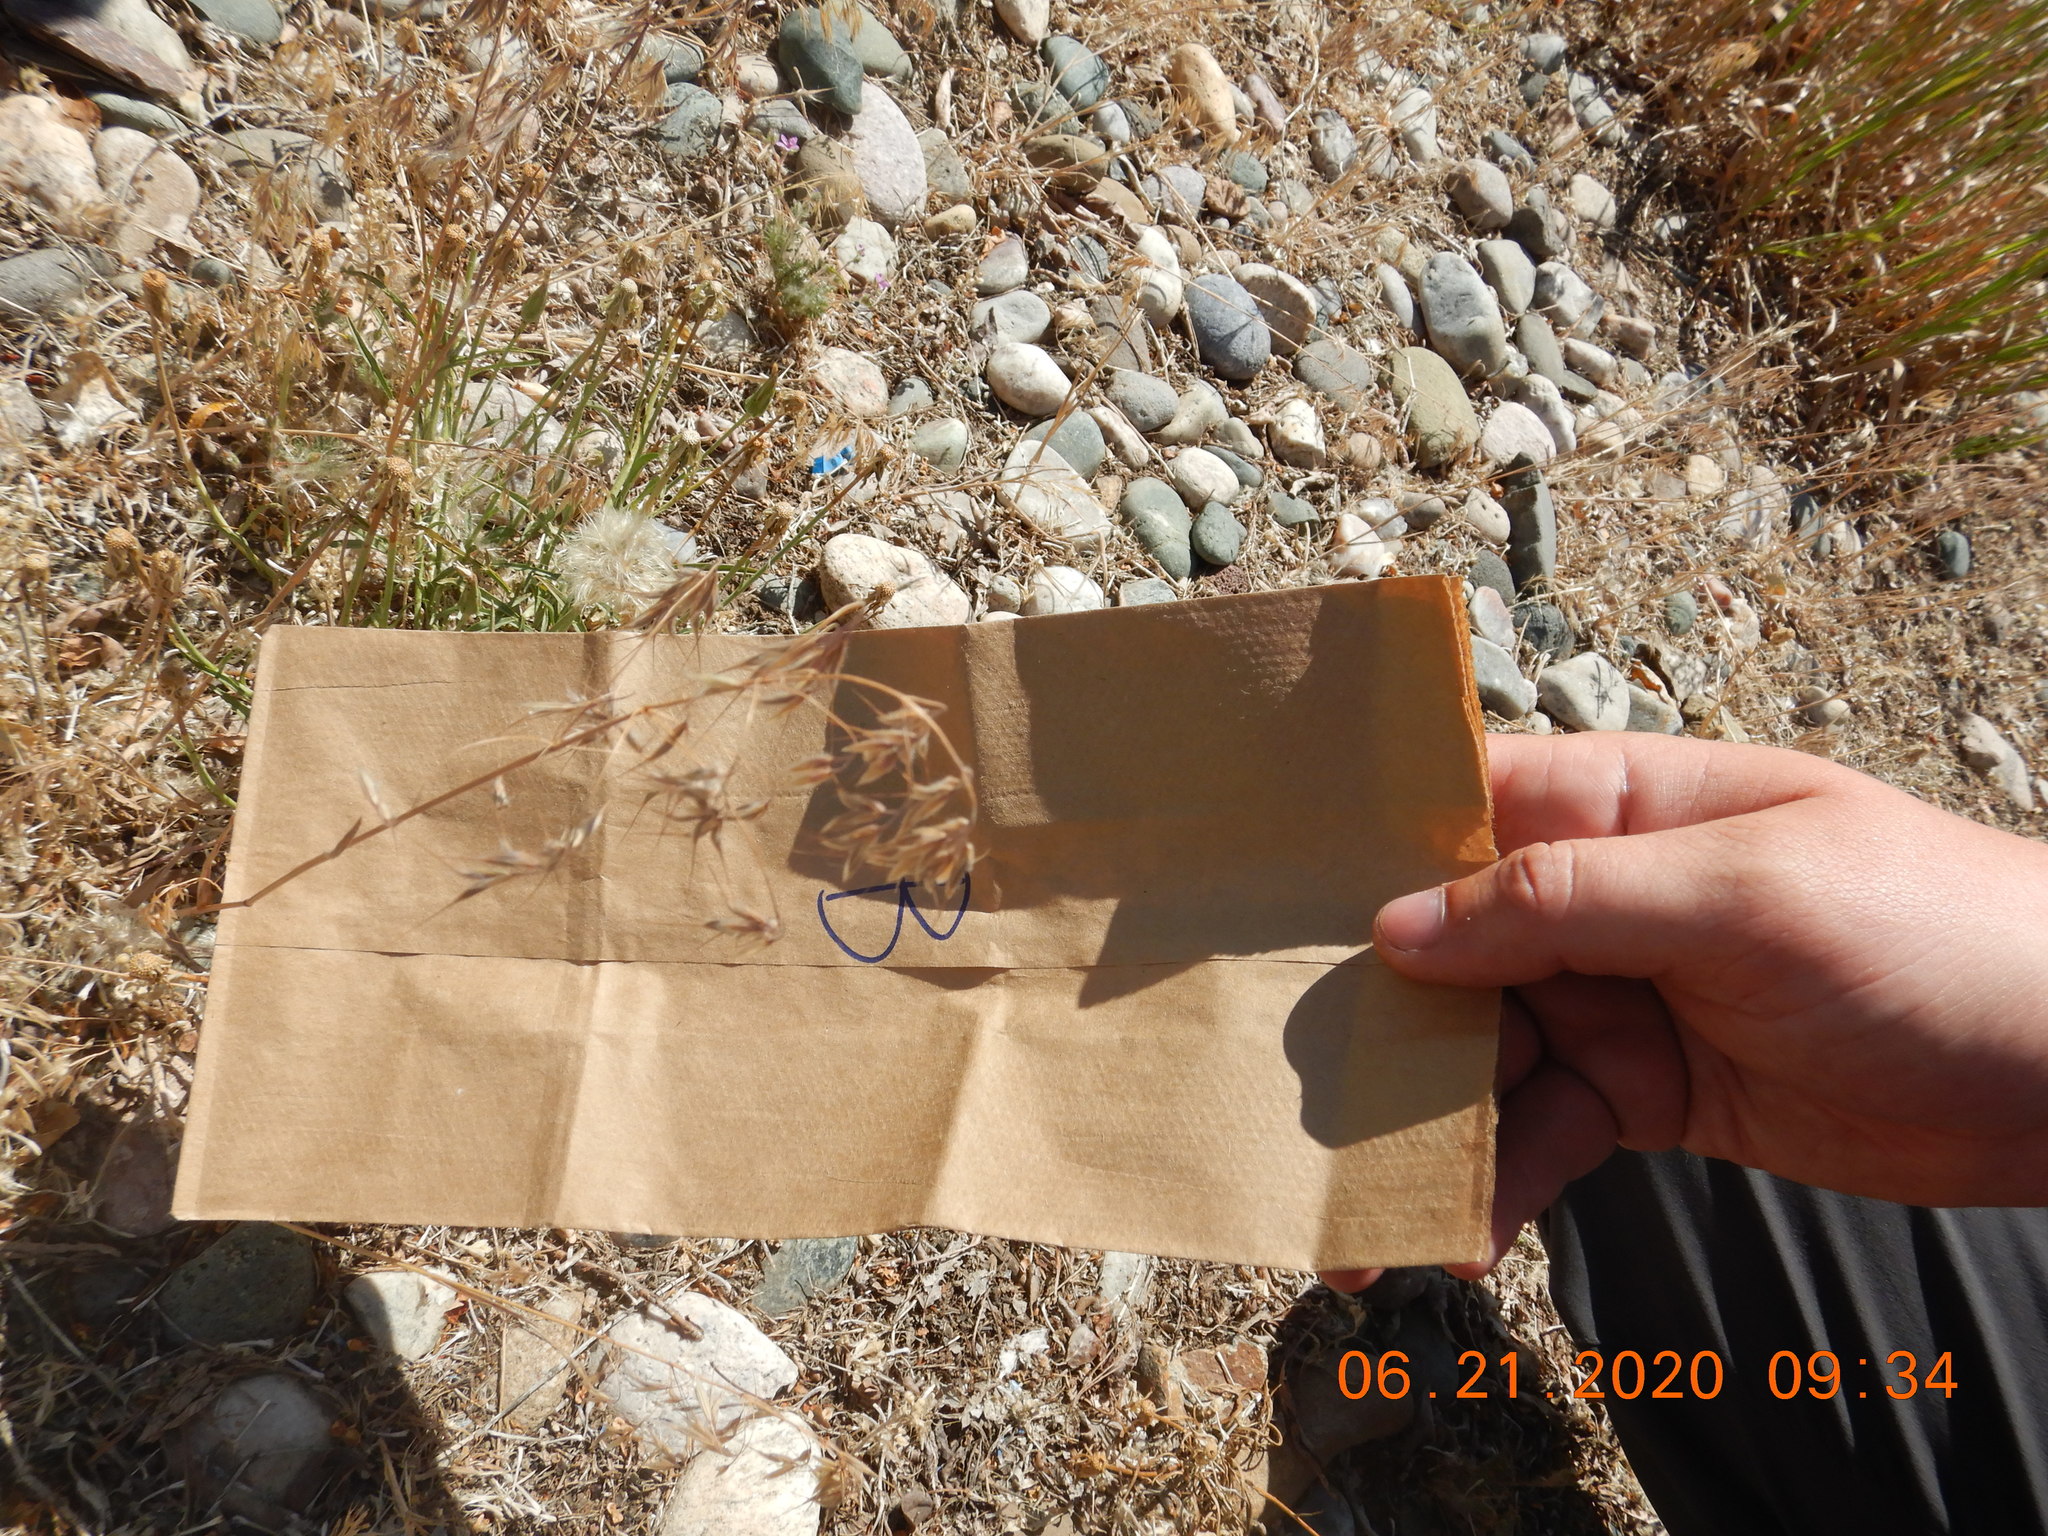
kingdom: Plantae
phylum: Tracheophyta
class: Liliopsida
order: Poales
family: Poaceae
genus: Bromus
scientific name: Bromus tectorum
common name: Cheatgrass
